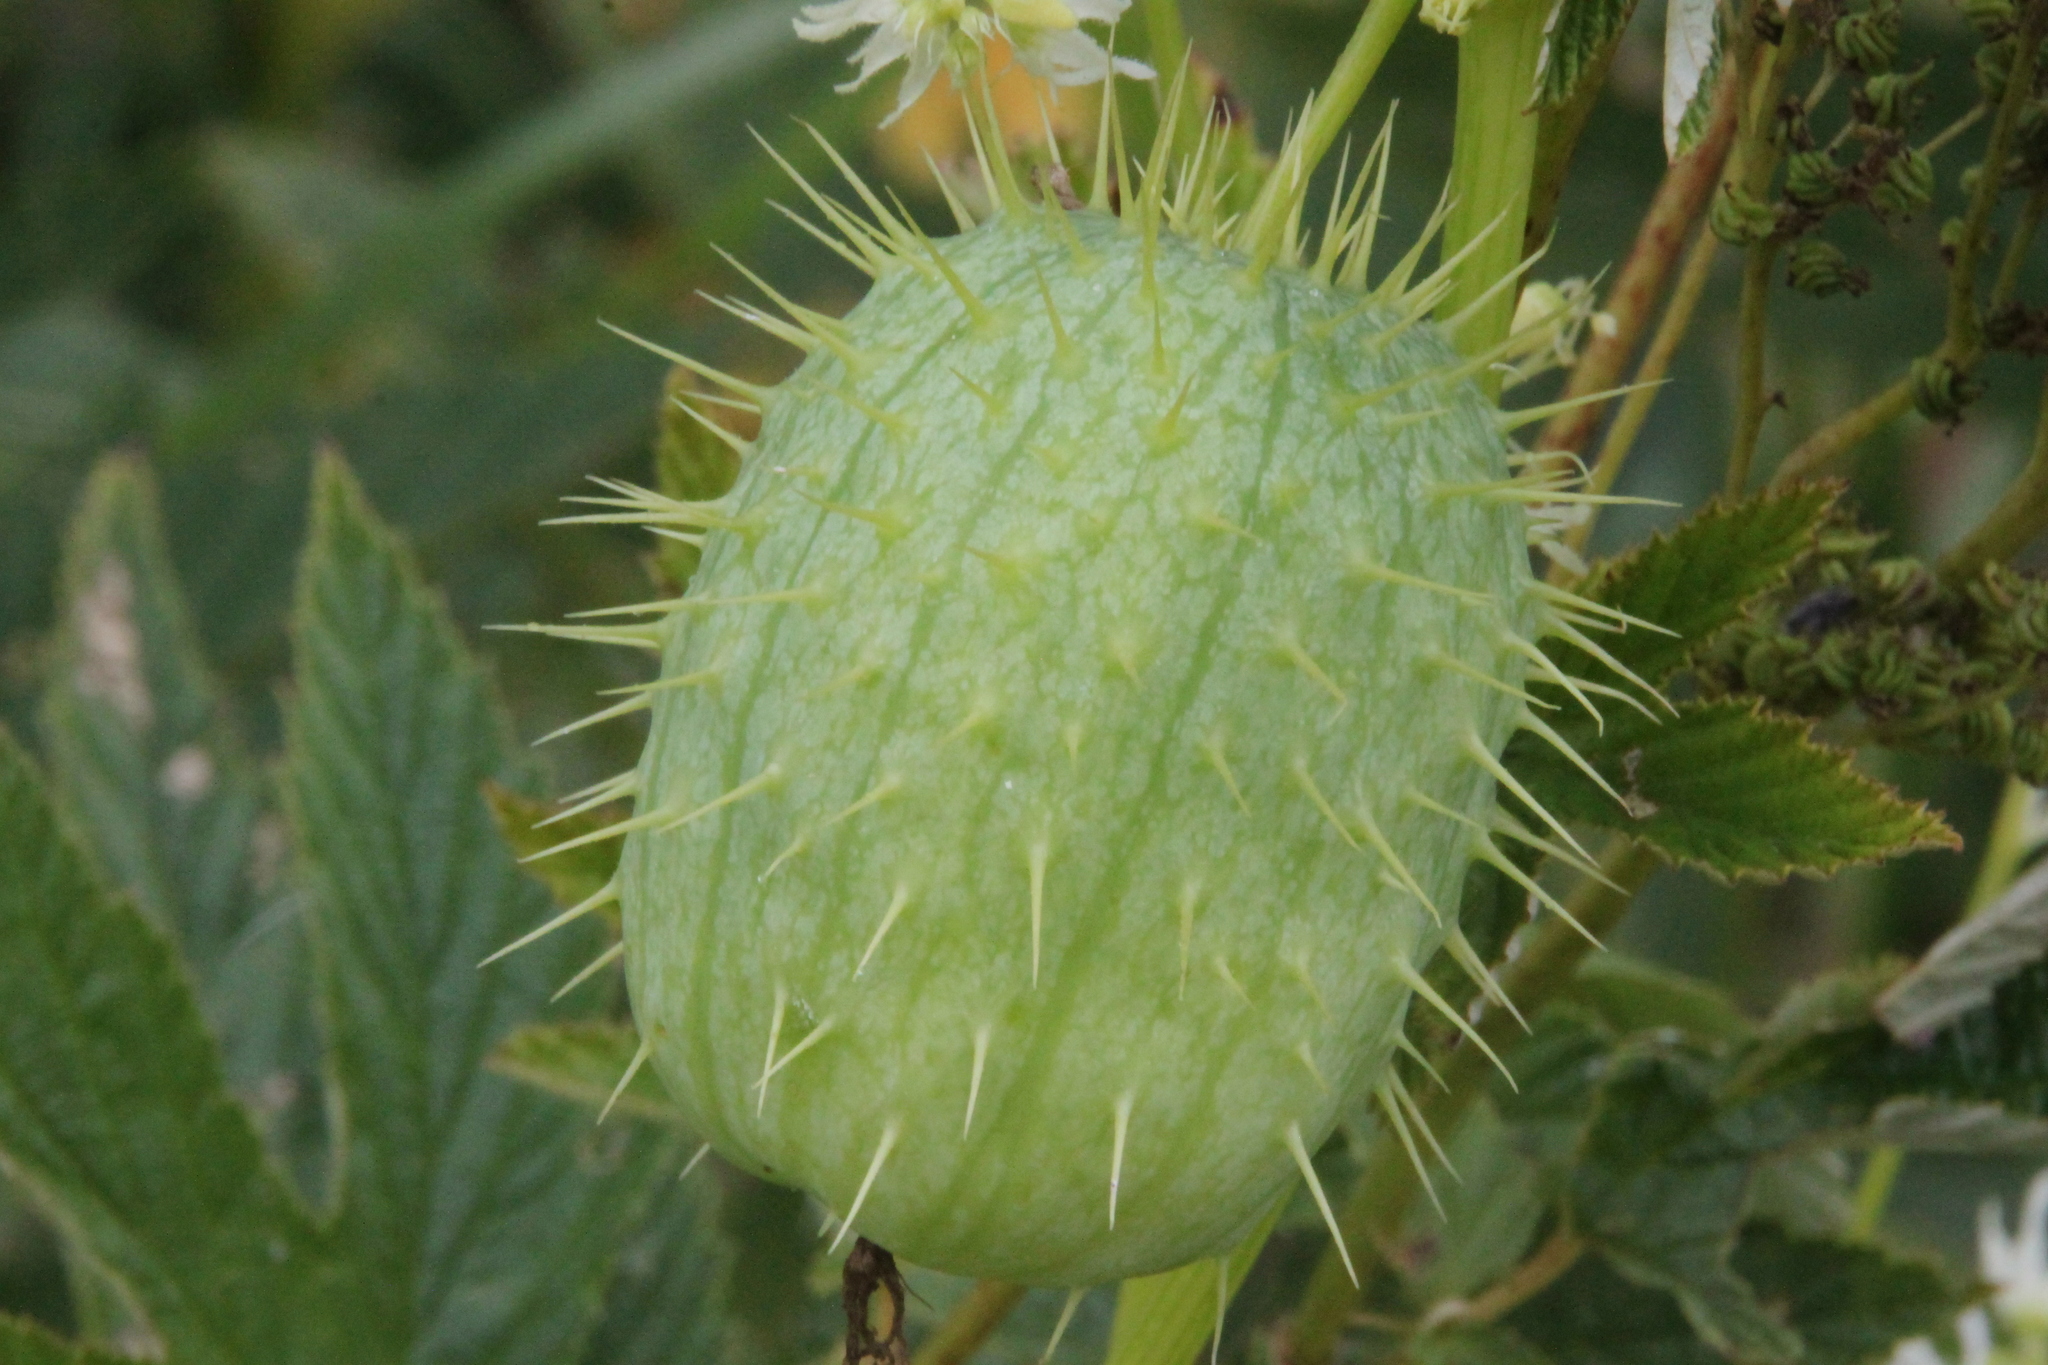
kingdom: Plantae
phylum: Tracheophyta
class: Magnoliopsida
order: Cucurbitales
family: Cucurbitaceae
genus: Echinocystis
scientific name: Echinocystis lobata
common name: Wild cucumber
